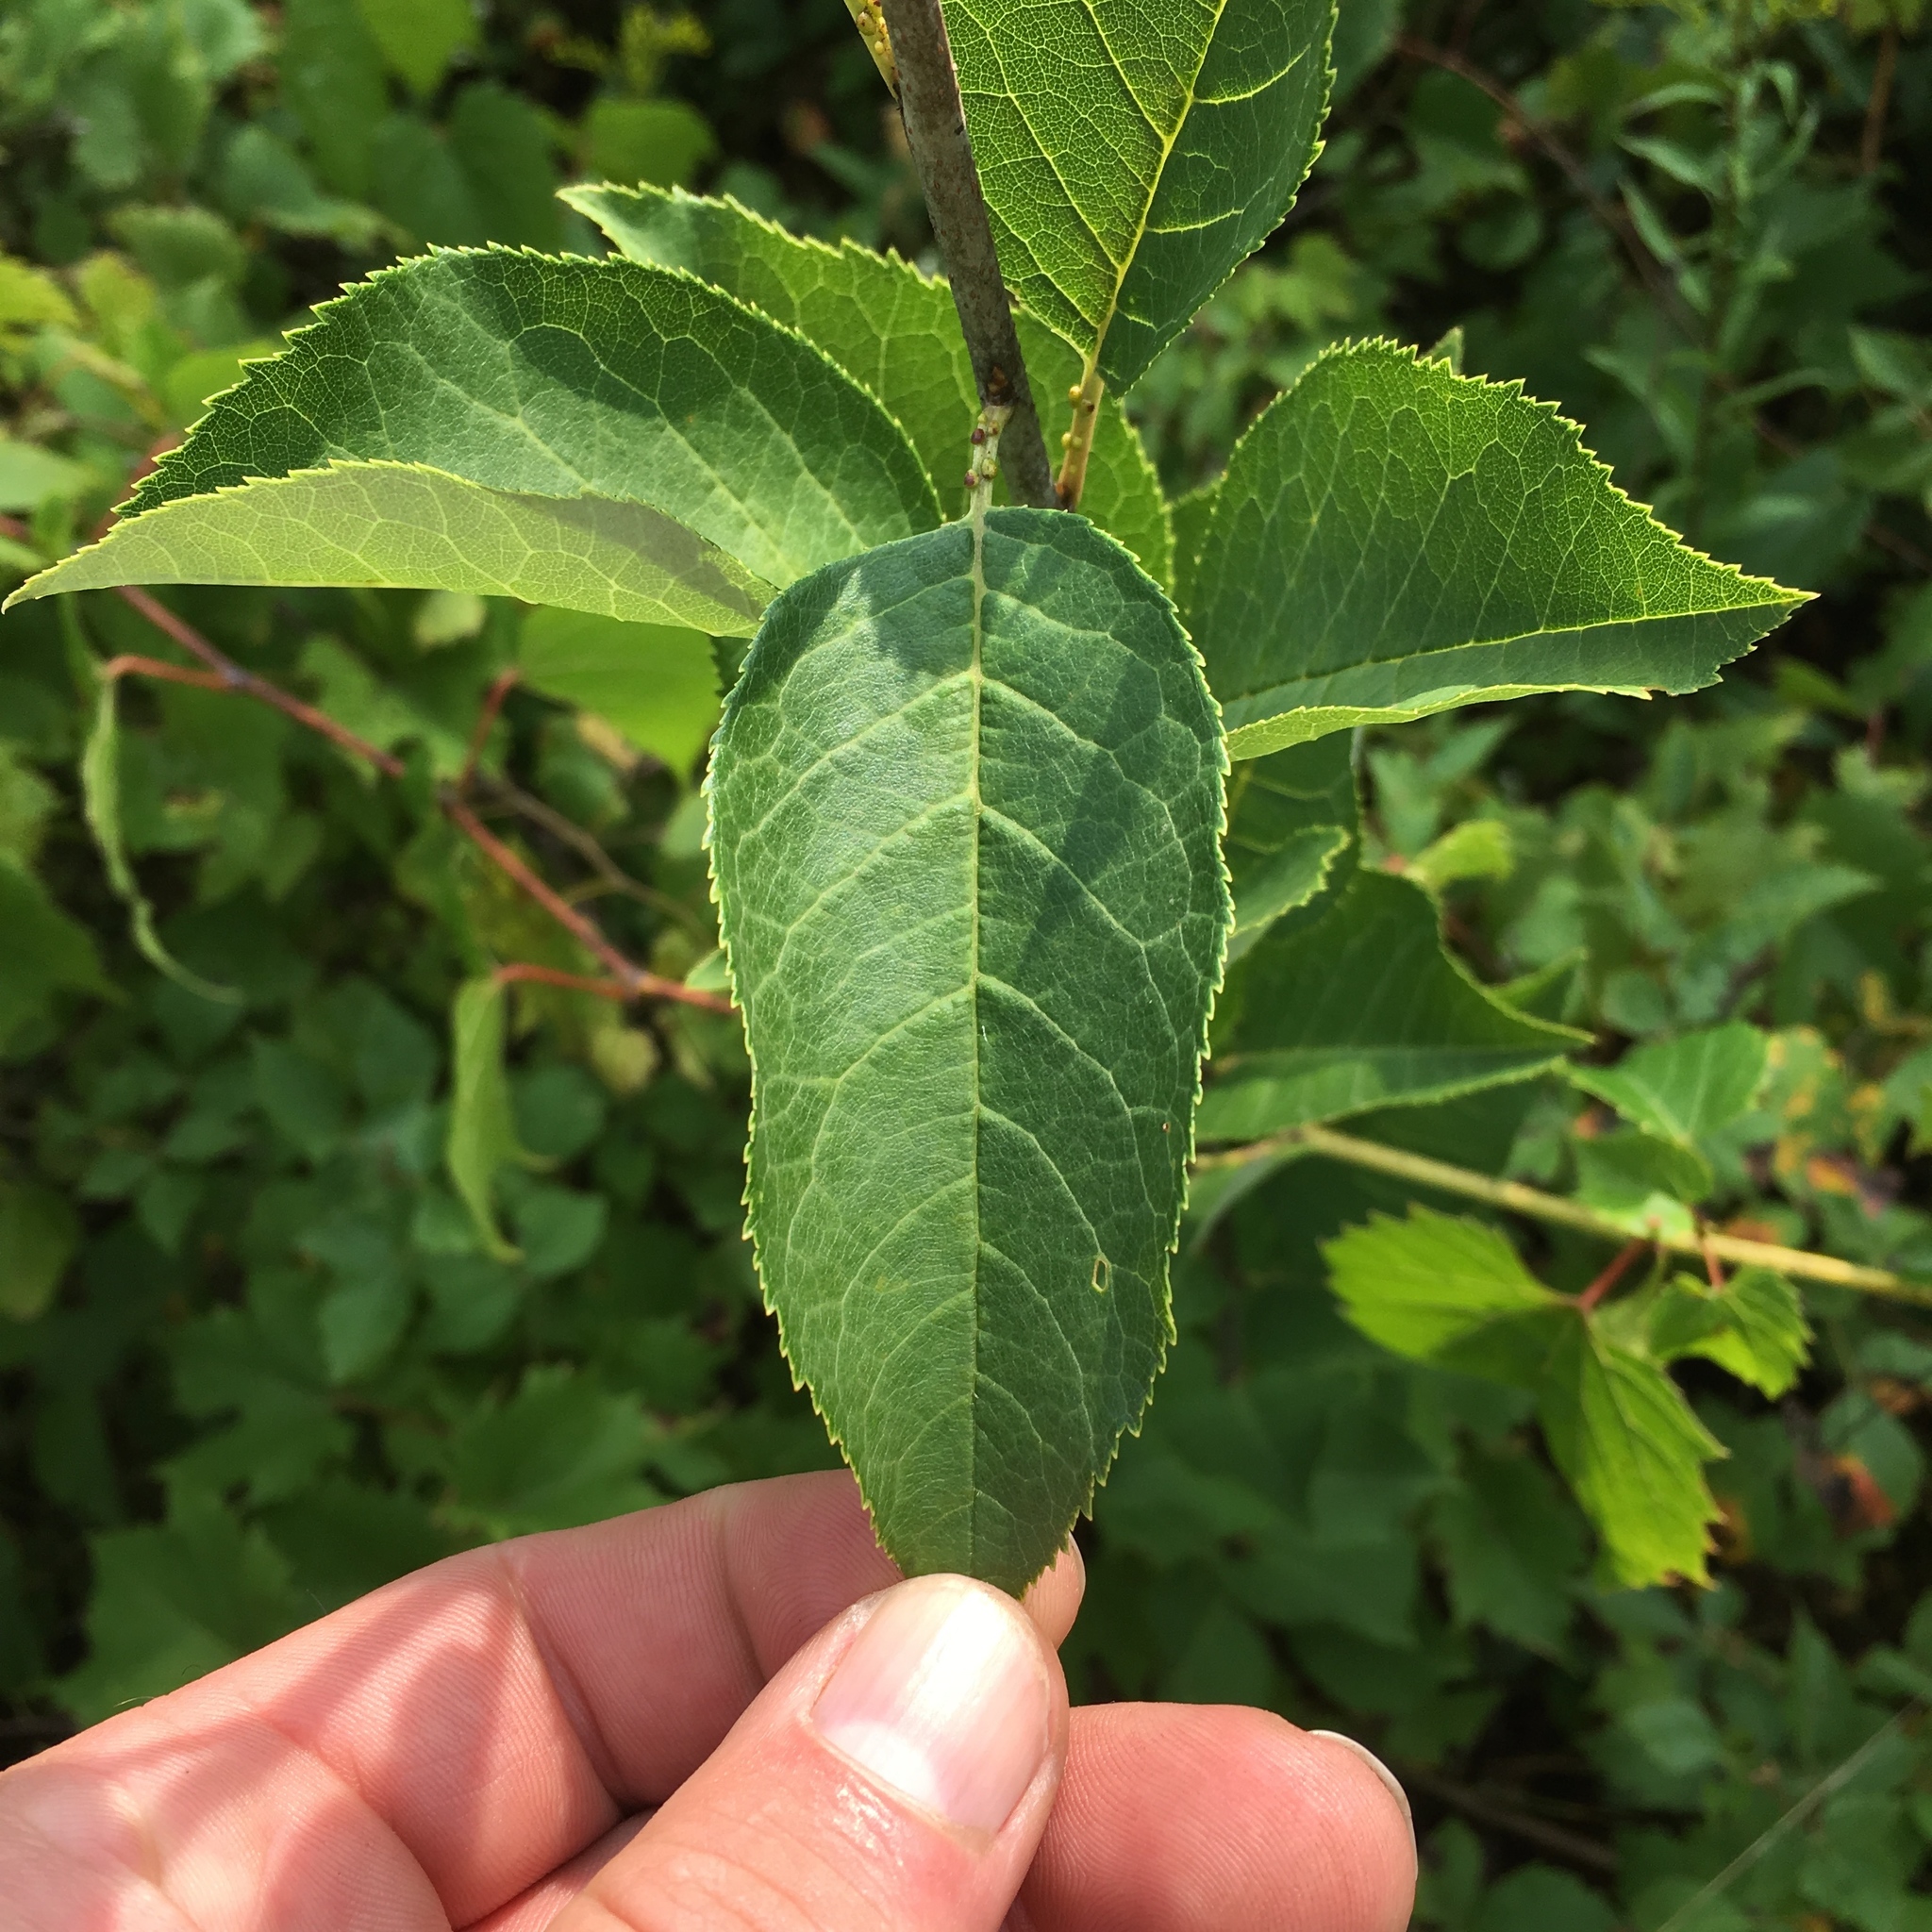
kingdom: Plantae
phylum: Tracheophyta
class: Magnoliopsida
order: Rosales
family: Rosaceae
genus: Prunus
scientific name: Prunus virginiana
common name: Chokecherry
